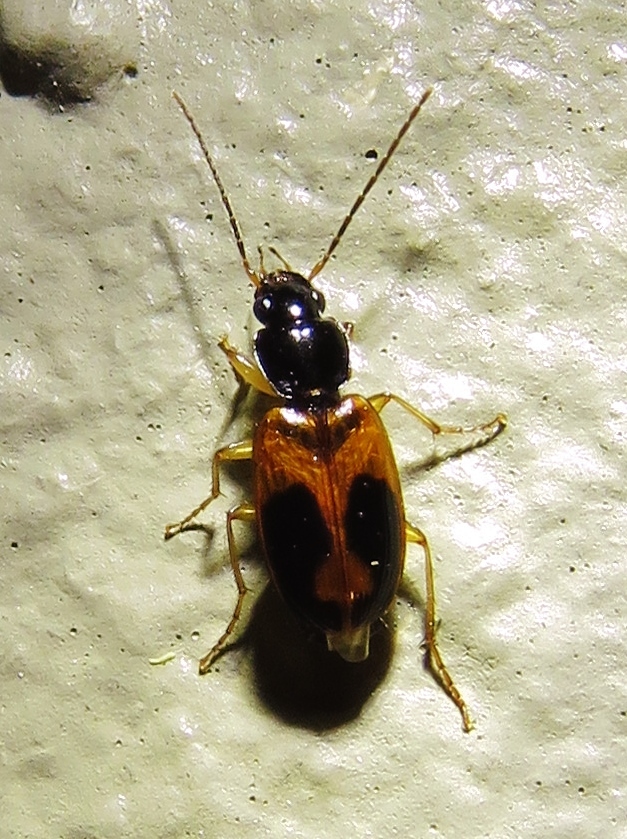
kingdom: Animalia
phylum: Arthropoda
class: Insecta
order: Coleoptera
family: Carabidae
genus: Badister
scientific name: Badister elegans
